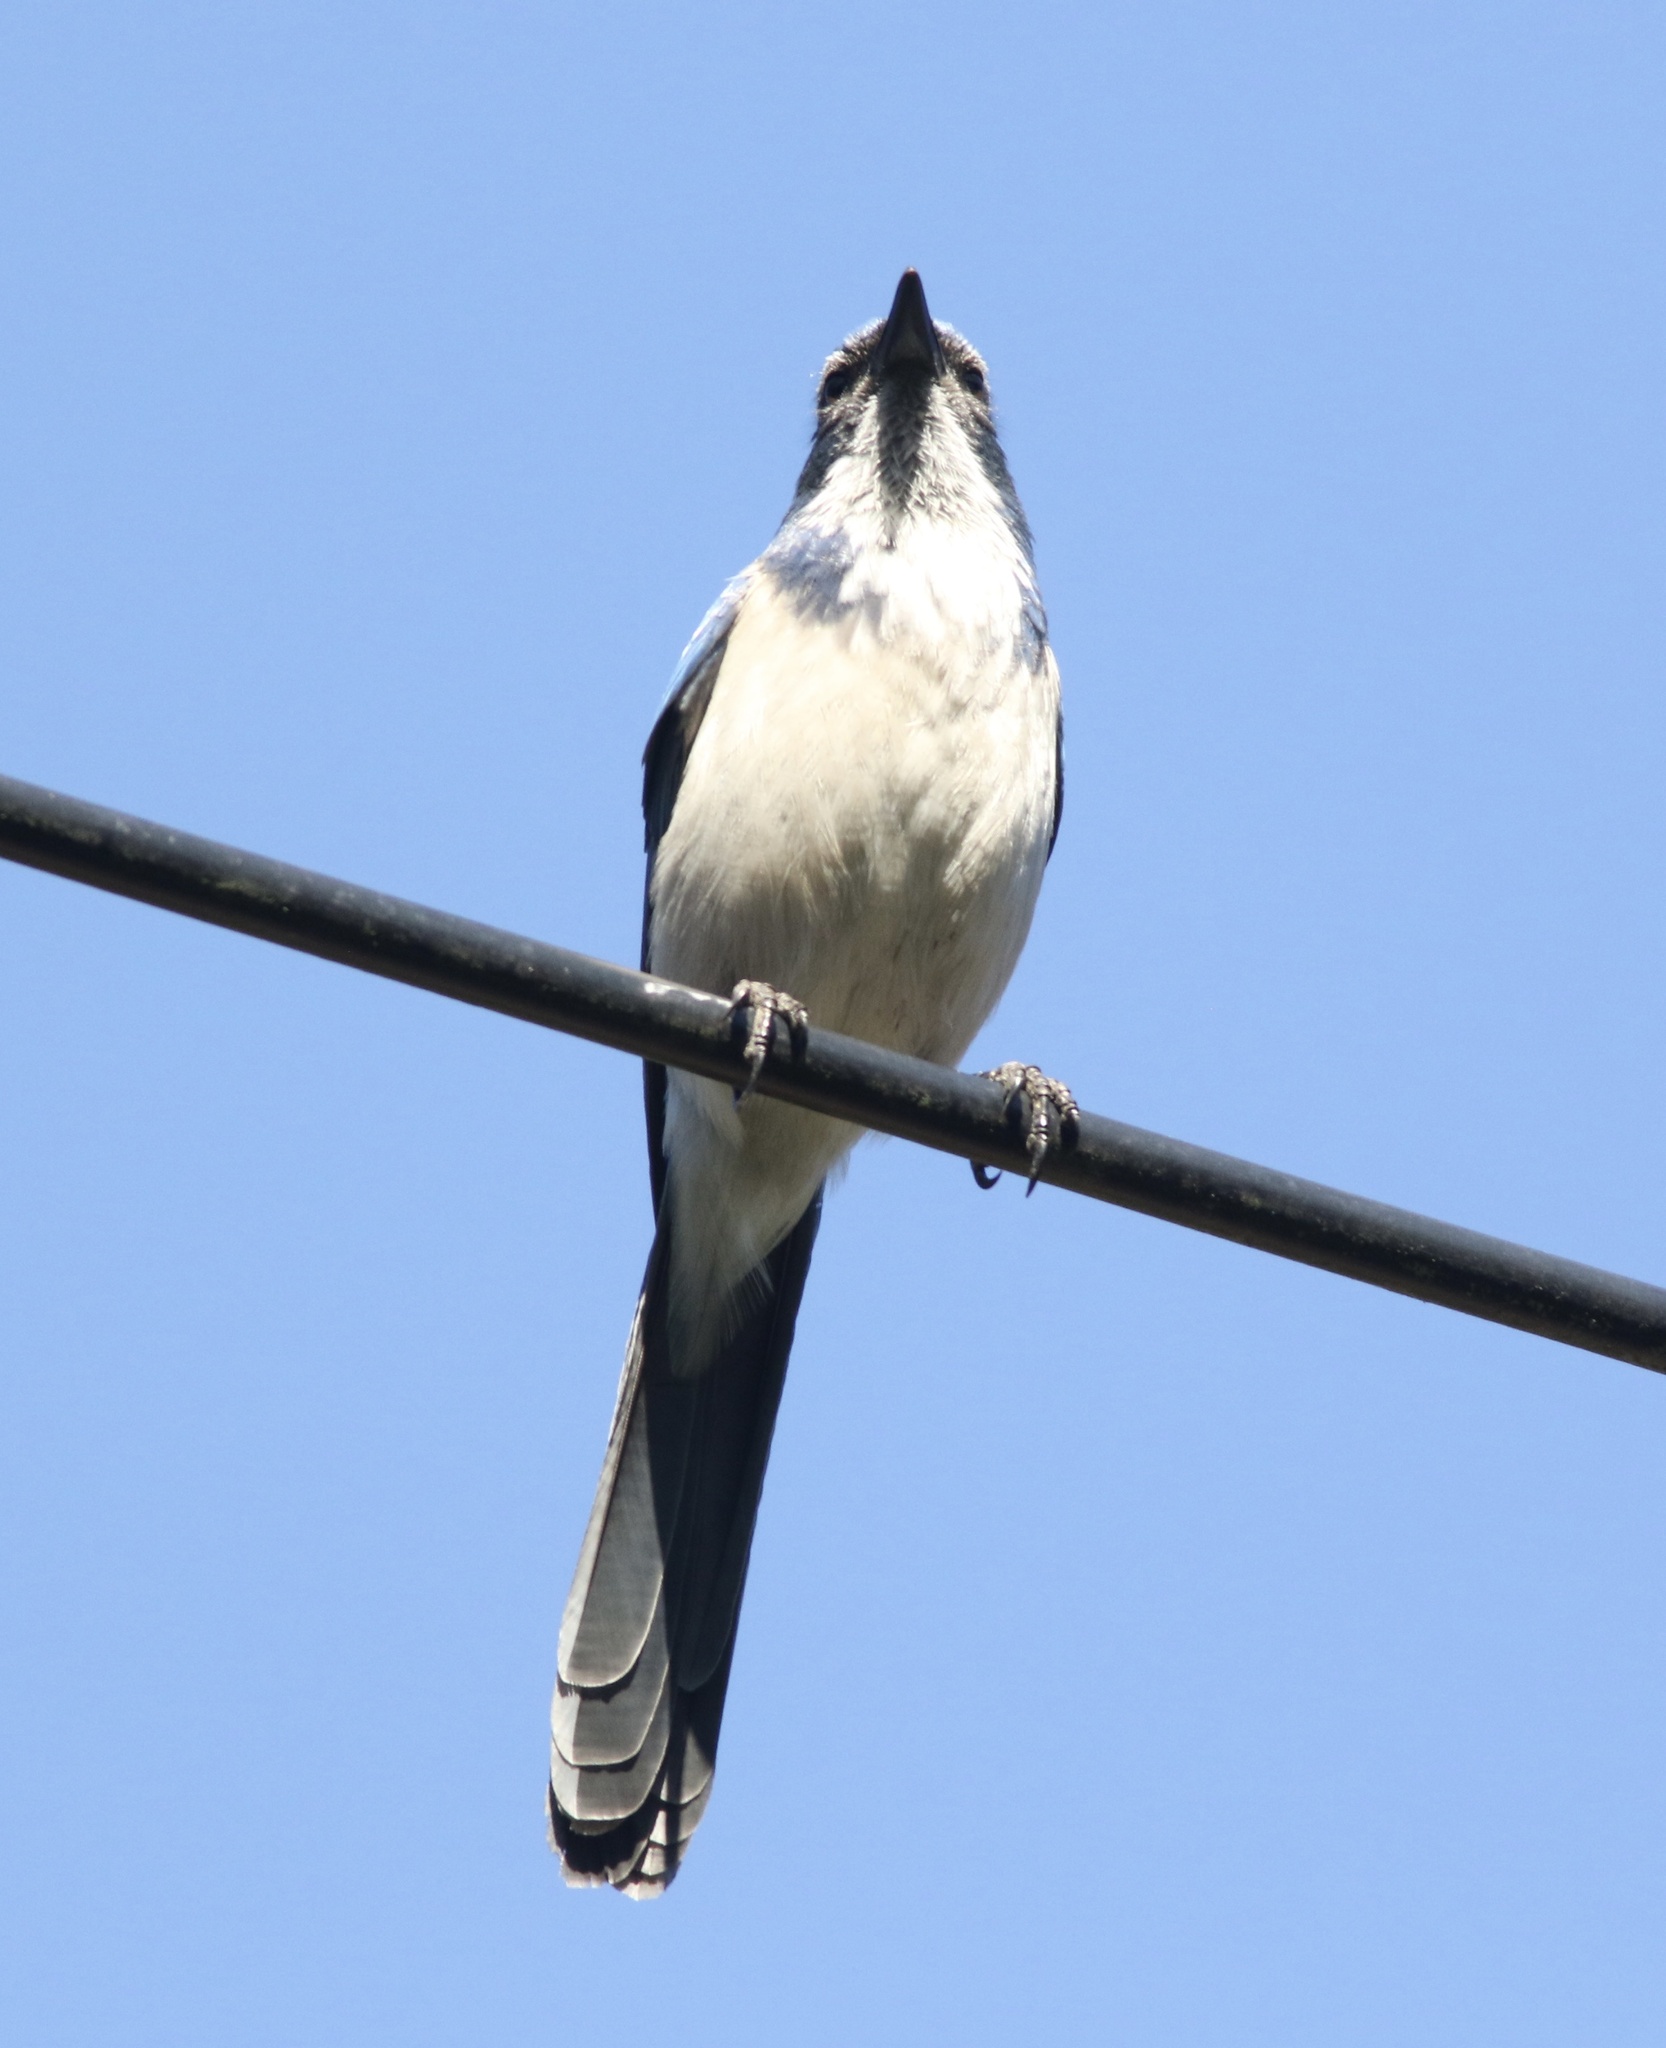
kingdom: Animalia
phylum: Chordata
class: Aves
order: Passeriformes
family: Corvidae
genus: Aphelocoma
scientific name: Aphelocoma californica
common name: California scrub-jay
